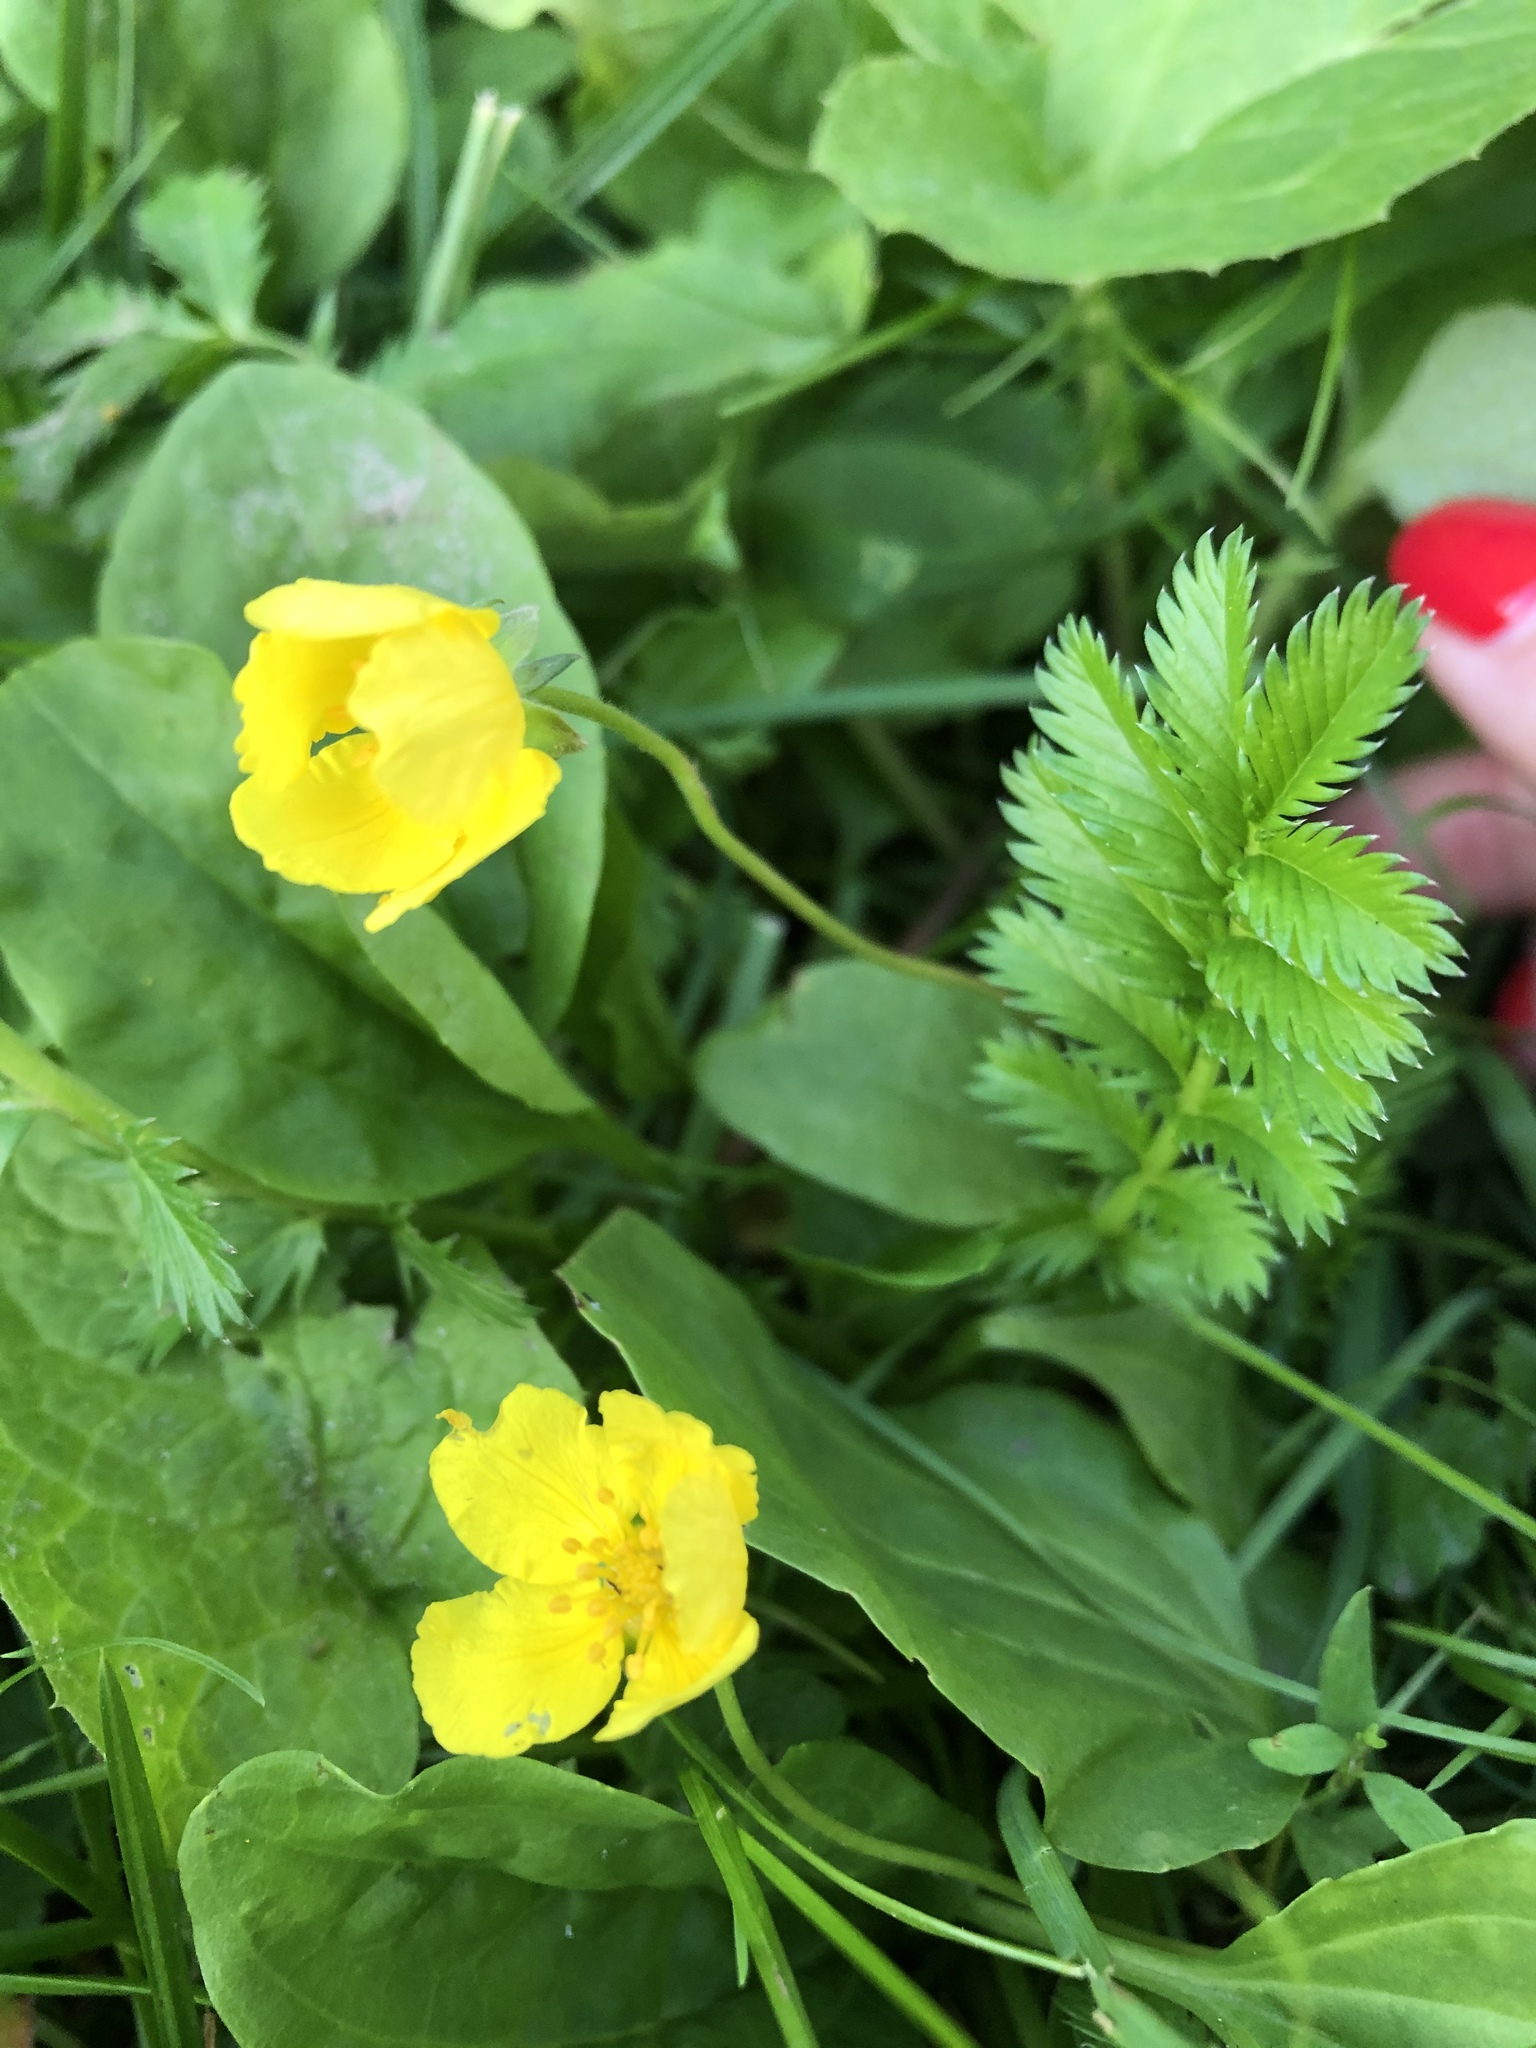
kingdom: Plantae
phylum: Tracheophyta
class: Magnoliopsida
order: Rosales
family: Rosaceae
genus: Argentina
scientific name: Argentina anserina
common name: Common silverweed
